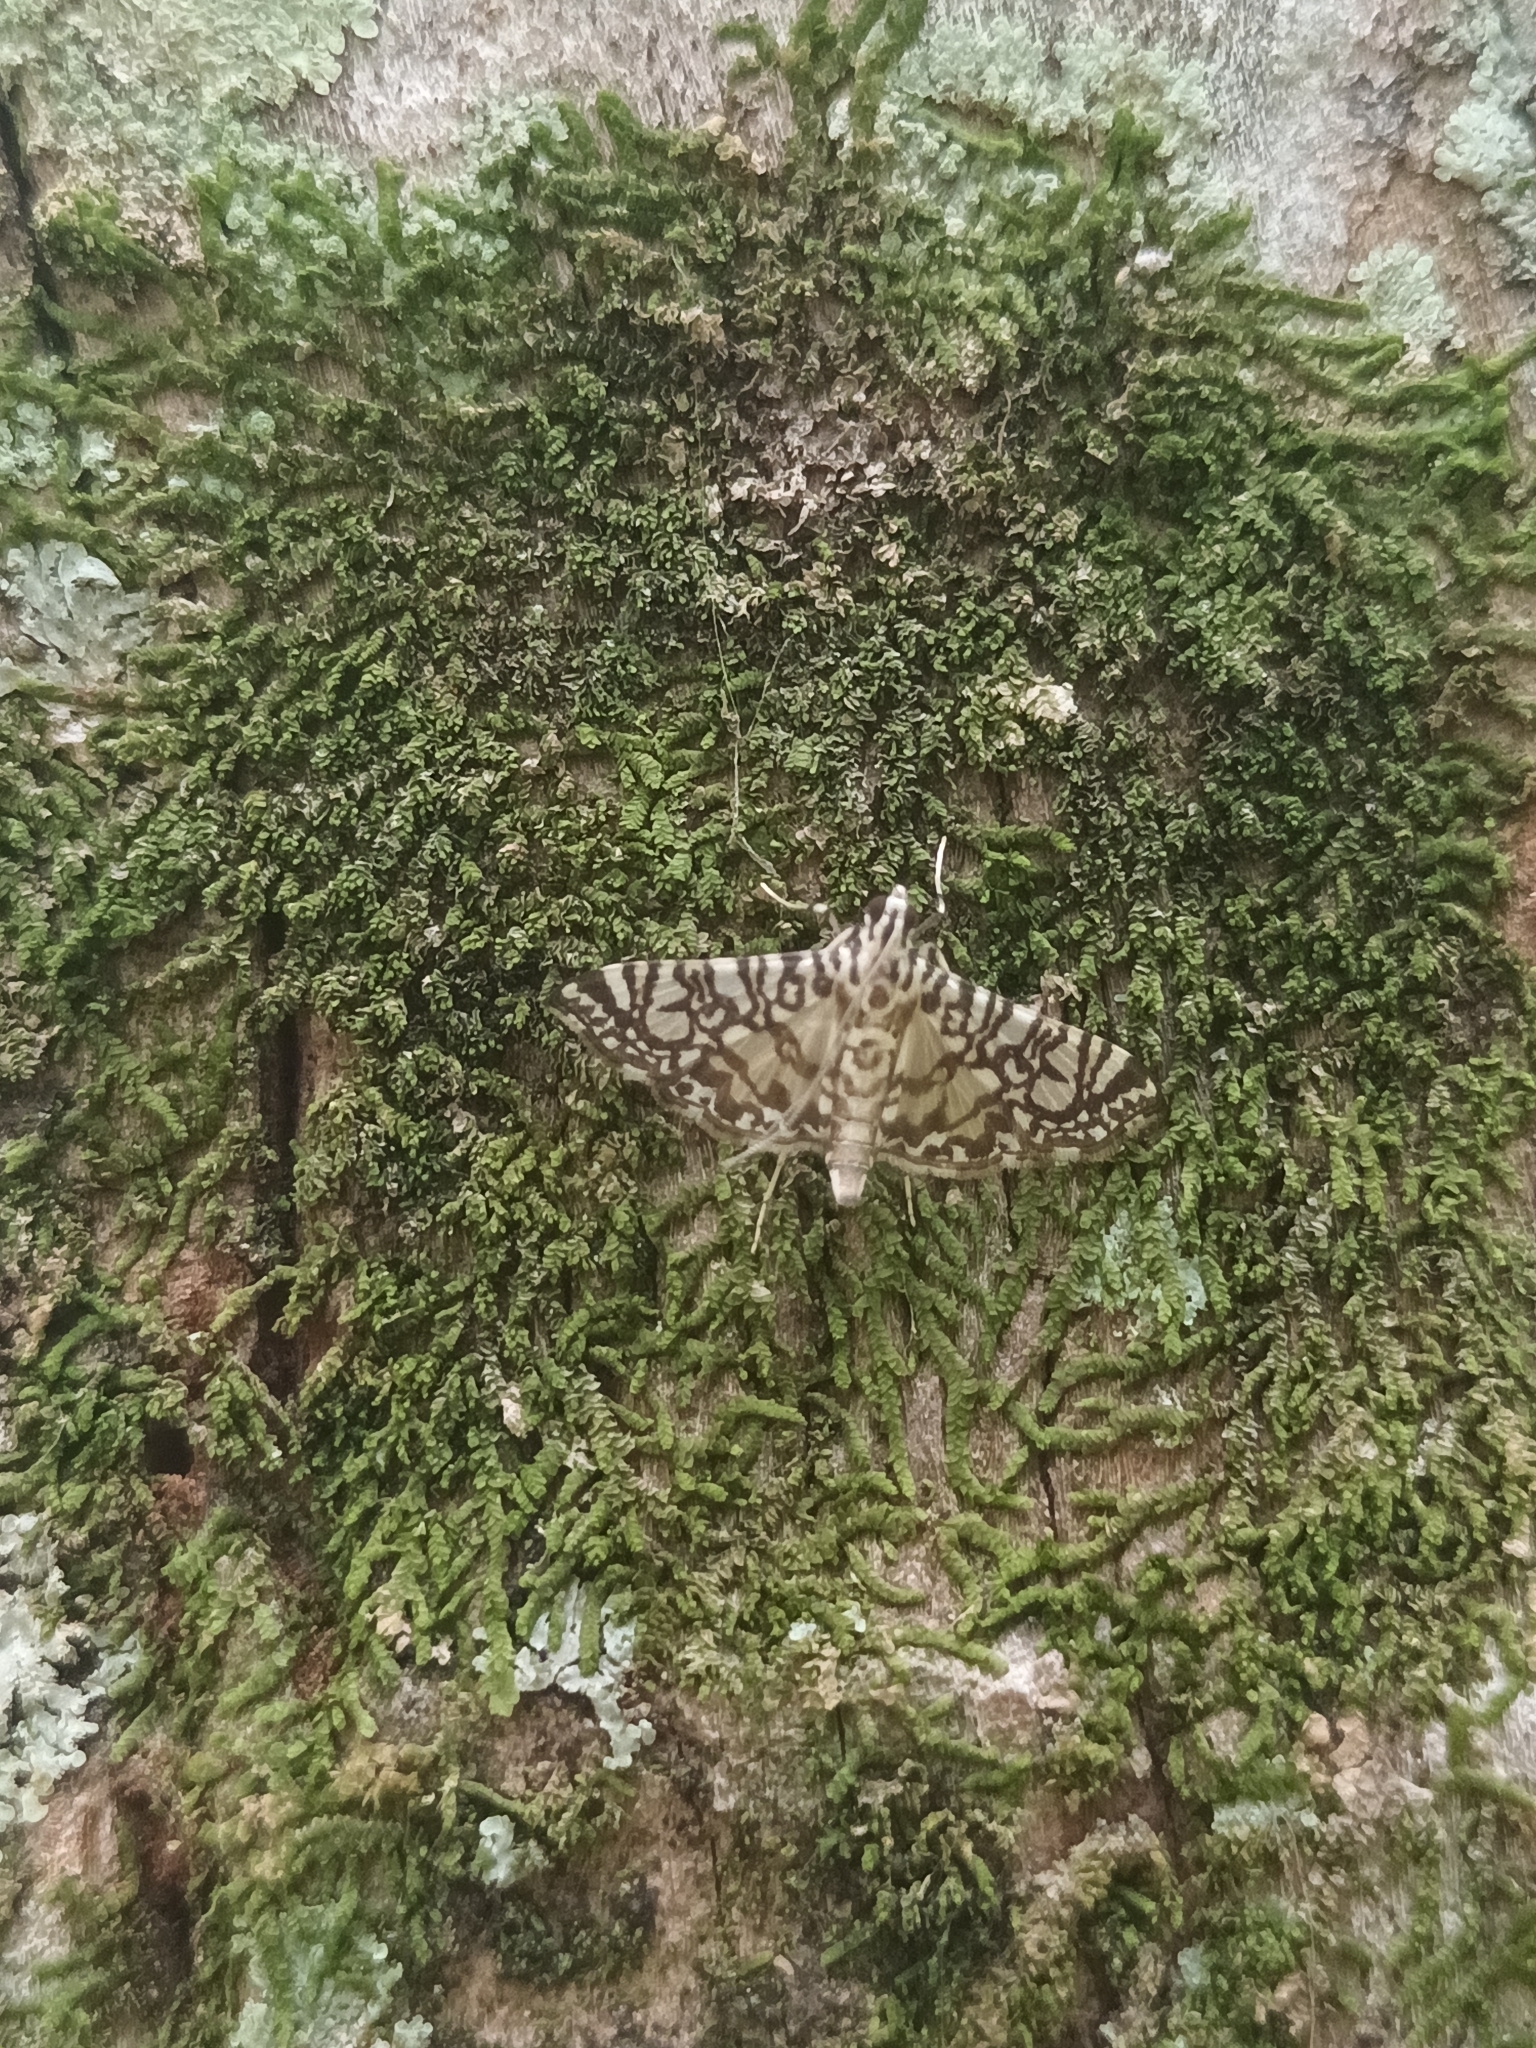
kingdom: Animalia
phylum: Arthropoda
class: Insecta
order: Lepidoptera
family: Crambidae
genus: Glyphodes
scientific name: Glyphodes onychinalis
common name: Swan plant moth
